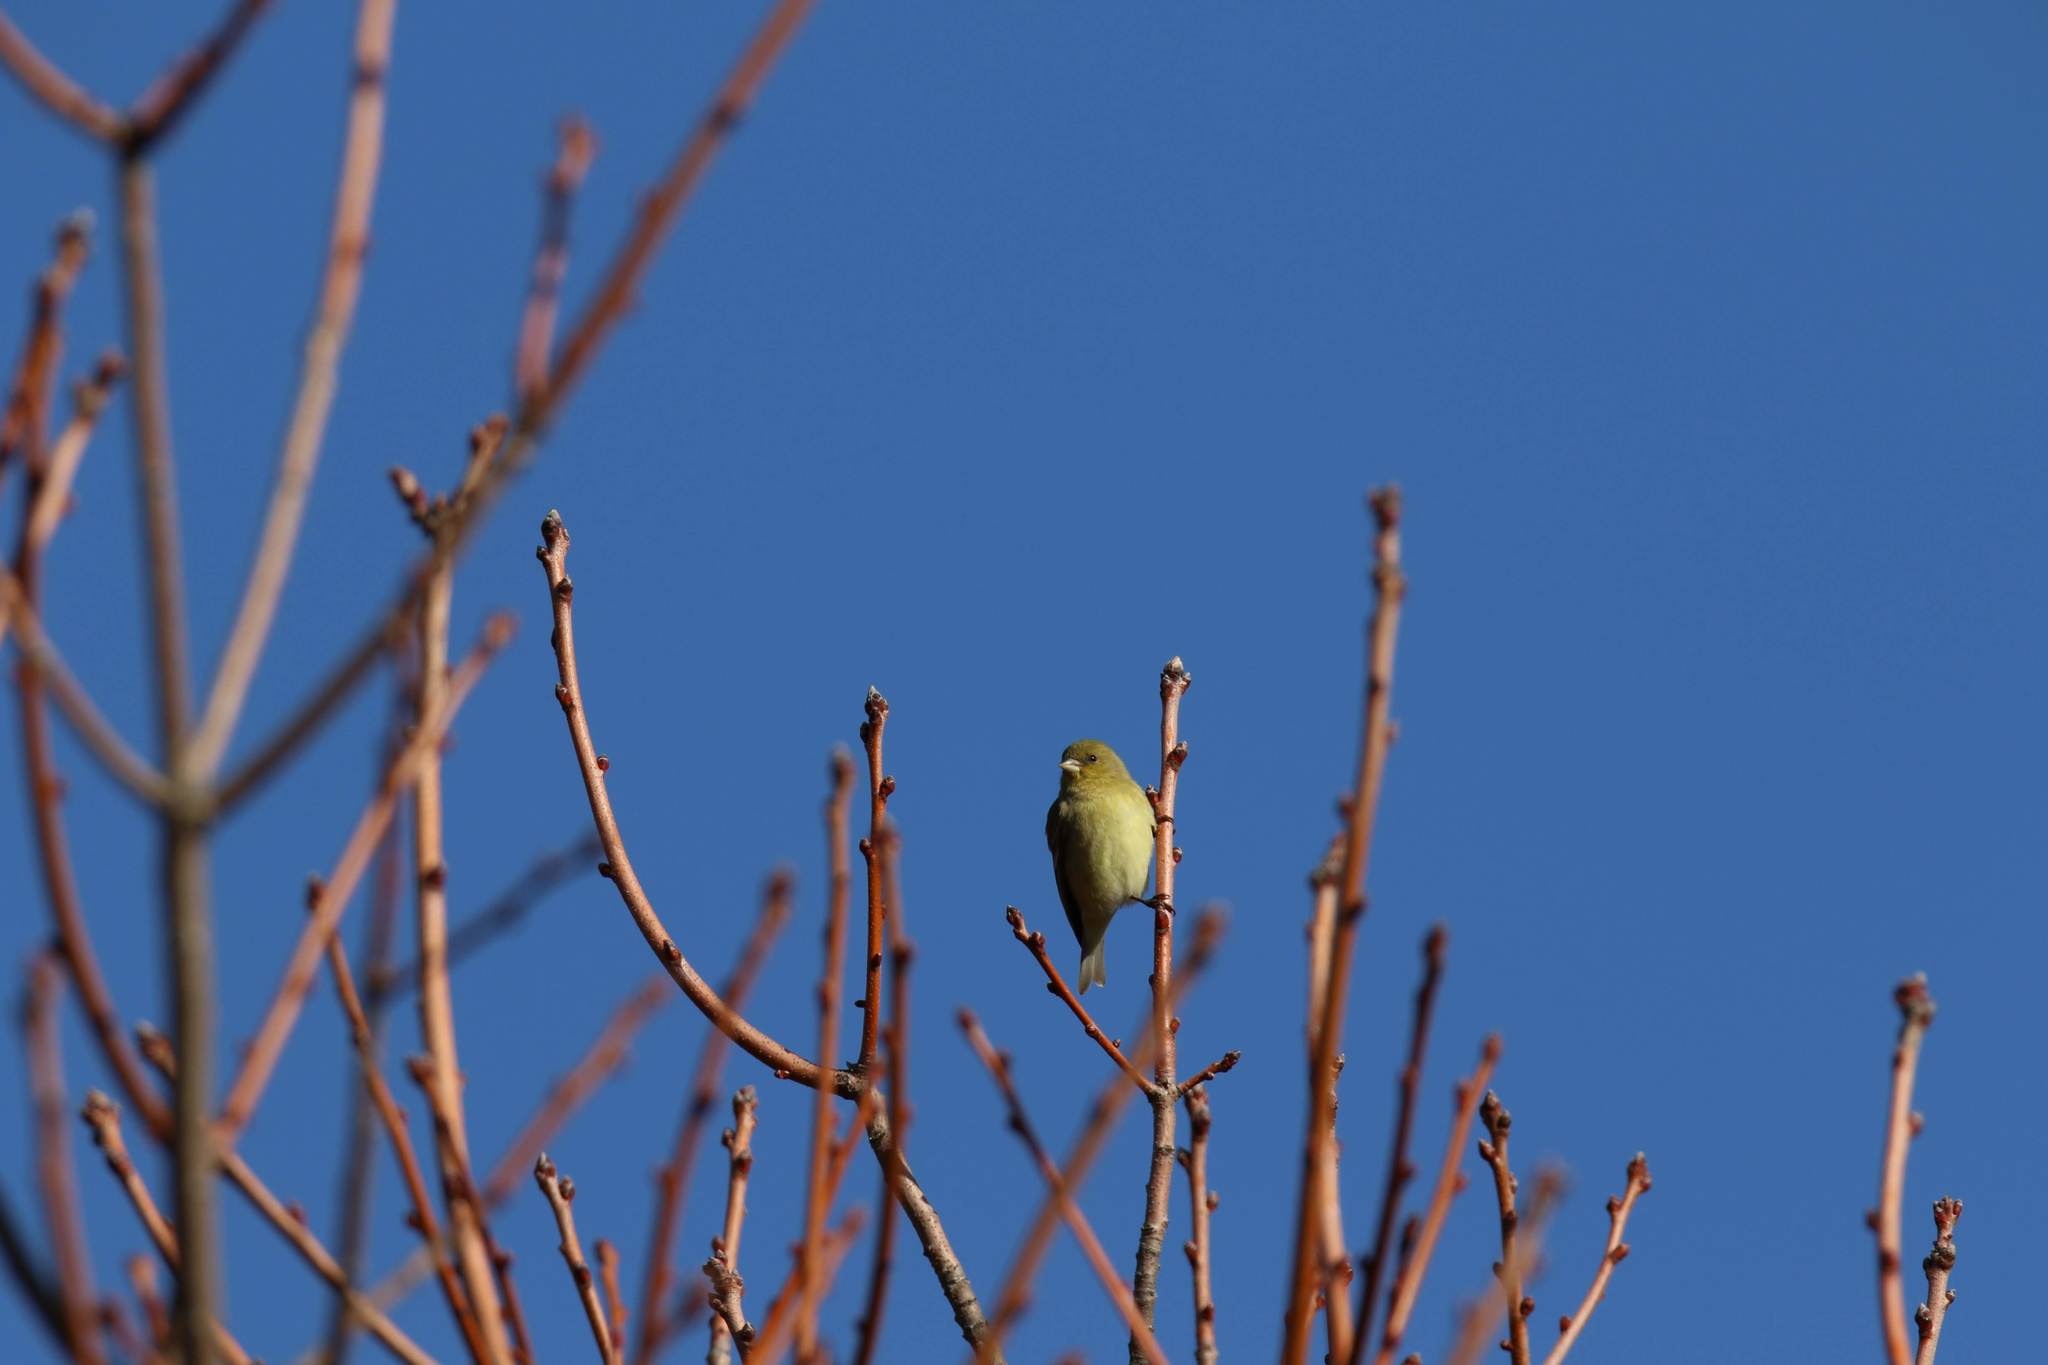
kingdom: Animalia
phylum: Chordata
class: Aves
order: Passeriformes
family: Fringillidae
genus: Spinus
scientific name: Spinus psaltria
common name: Lesser goldfinch
